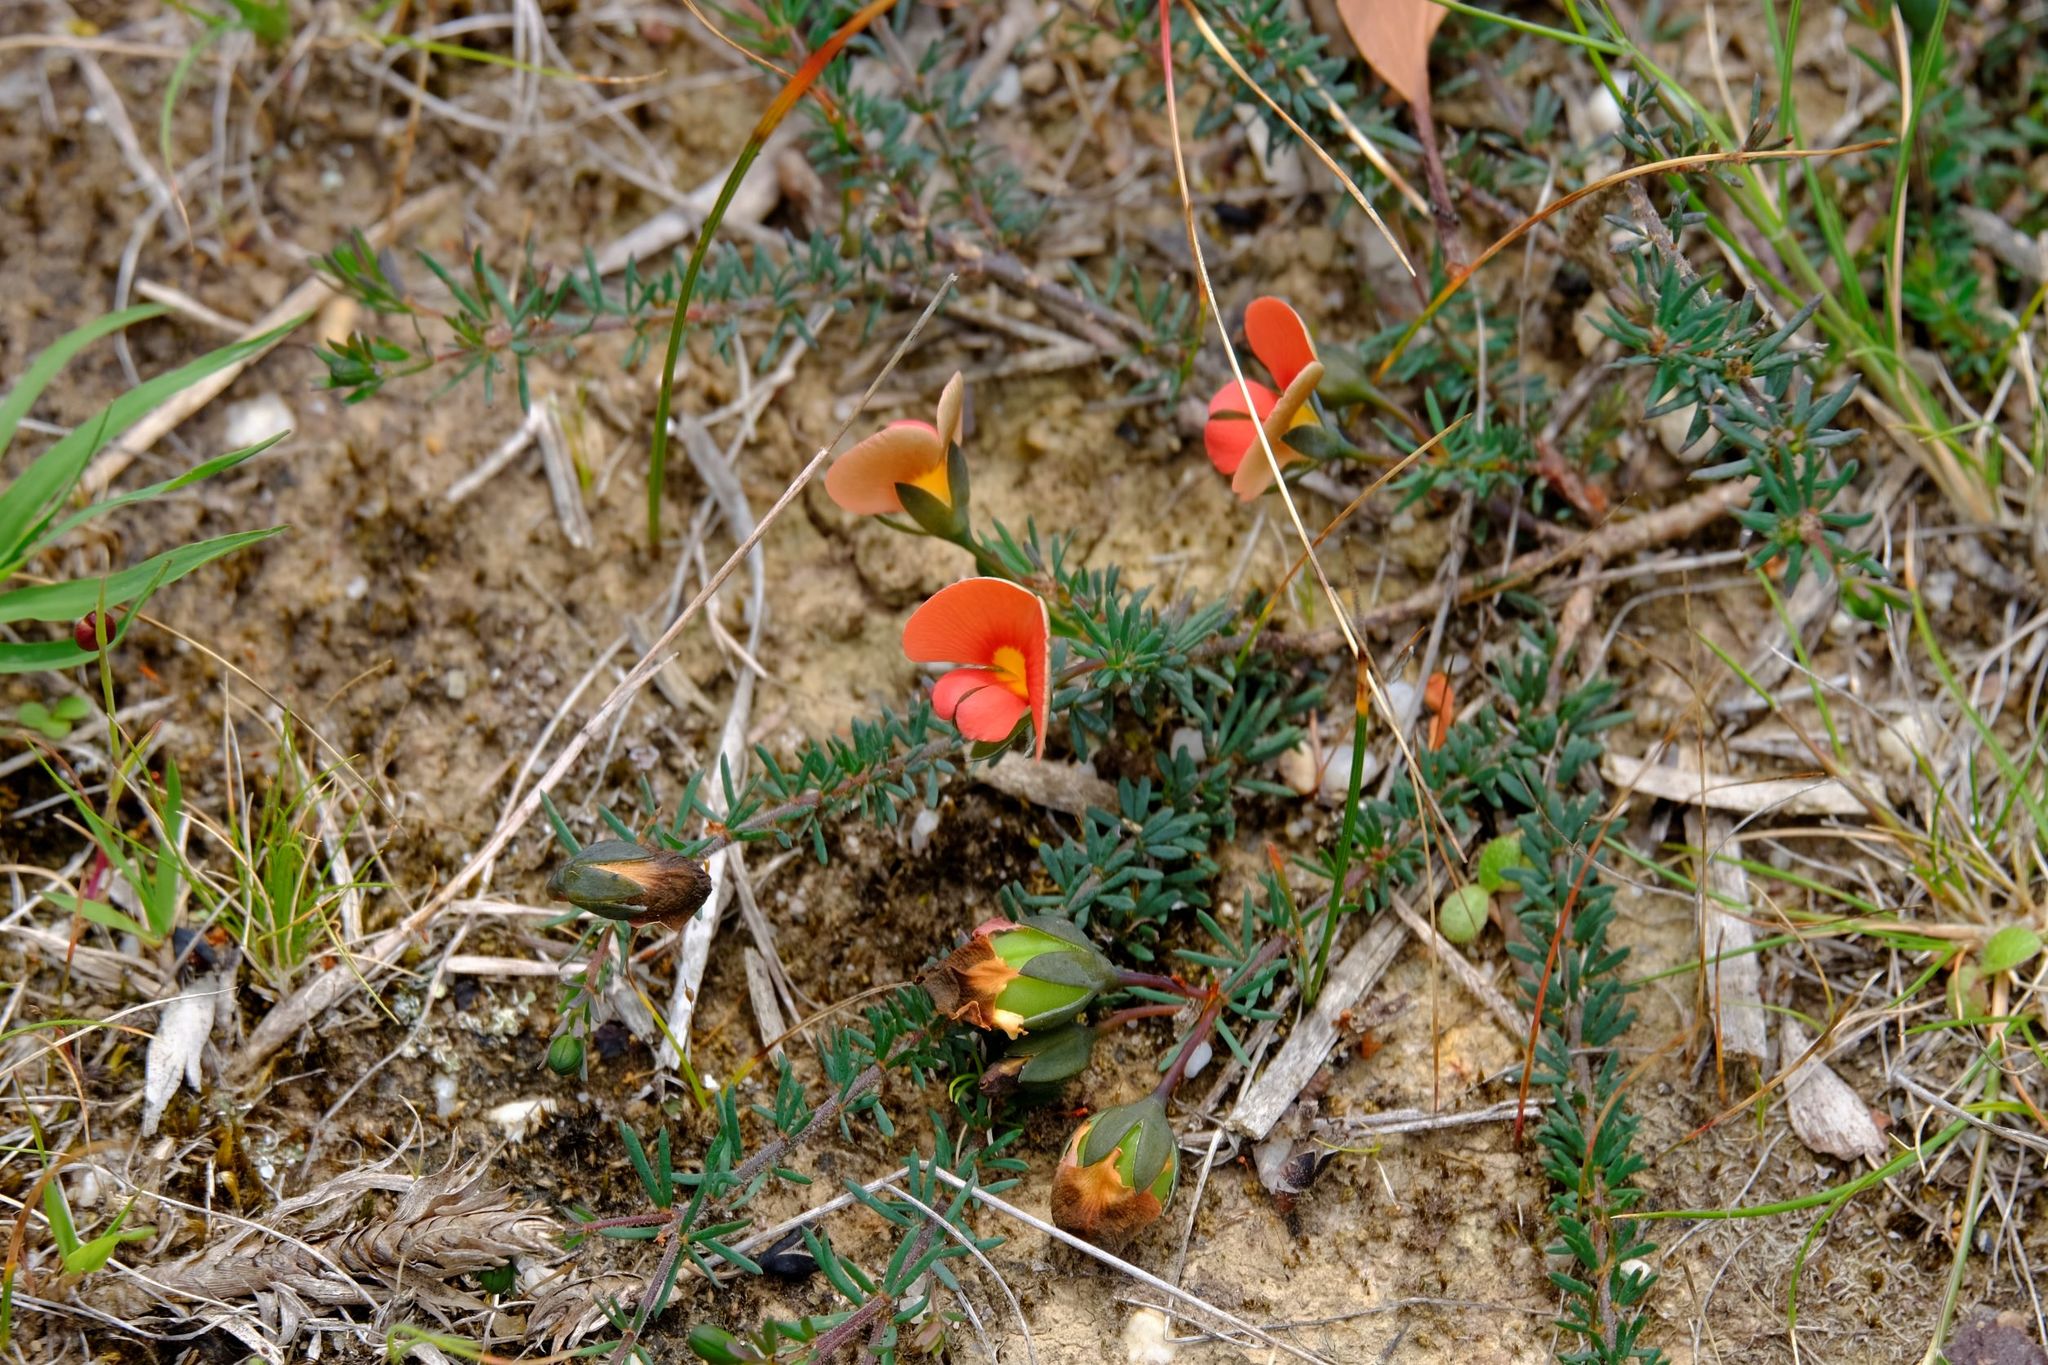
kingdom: Plantae
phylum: Tracheophyta
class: Magnoliopsida
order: Fabales
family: Fabaceae
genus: Gompholobium
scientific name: Gompholobium ecostatum
